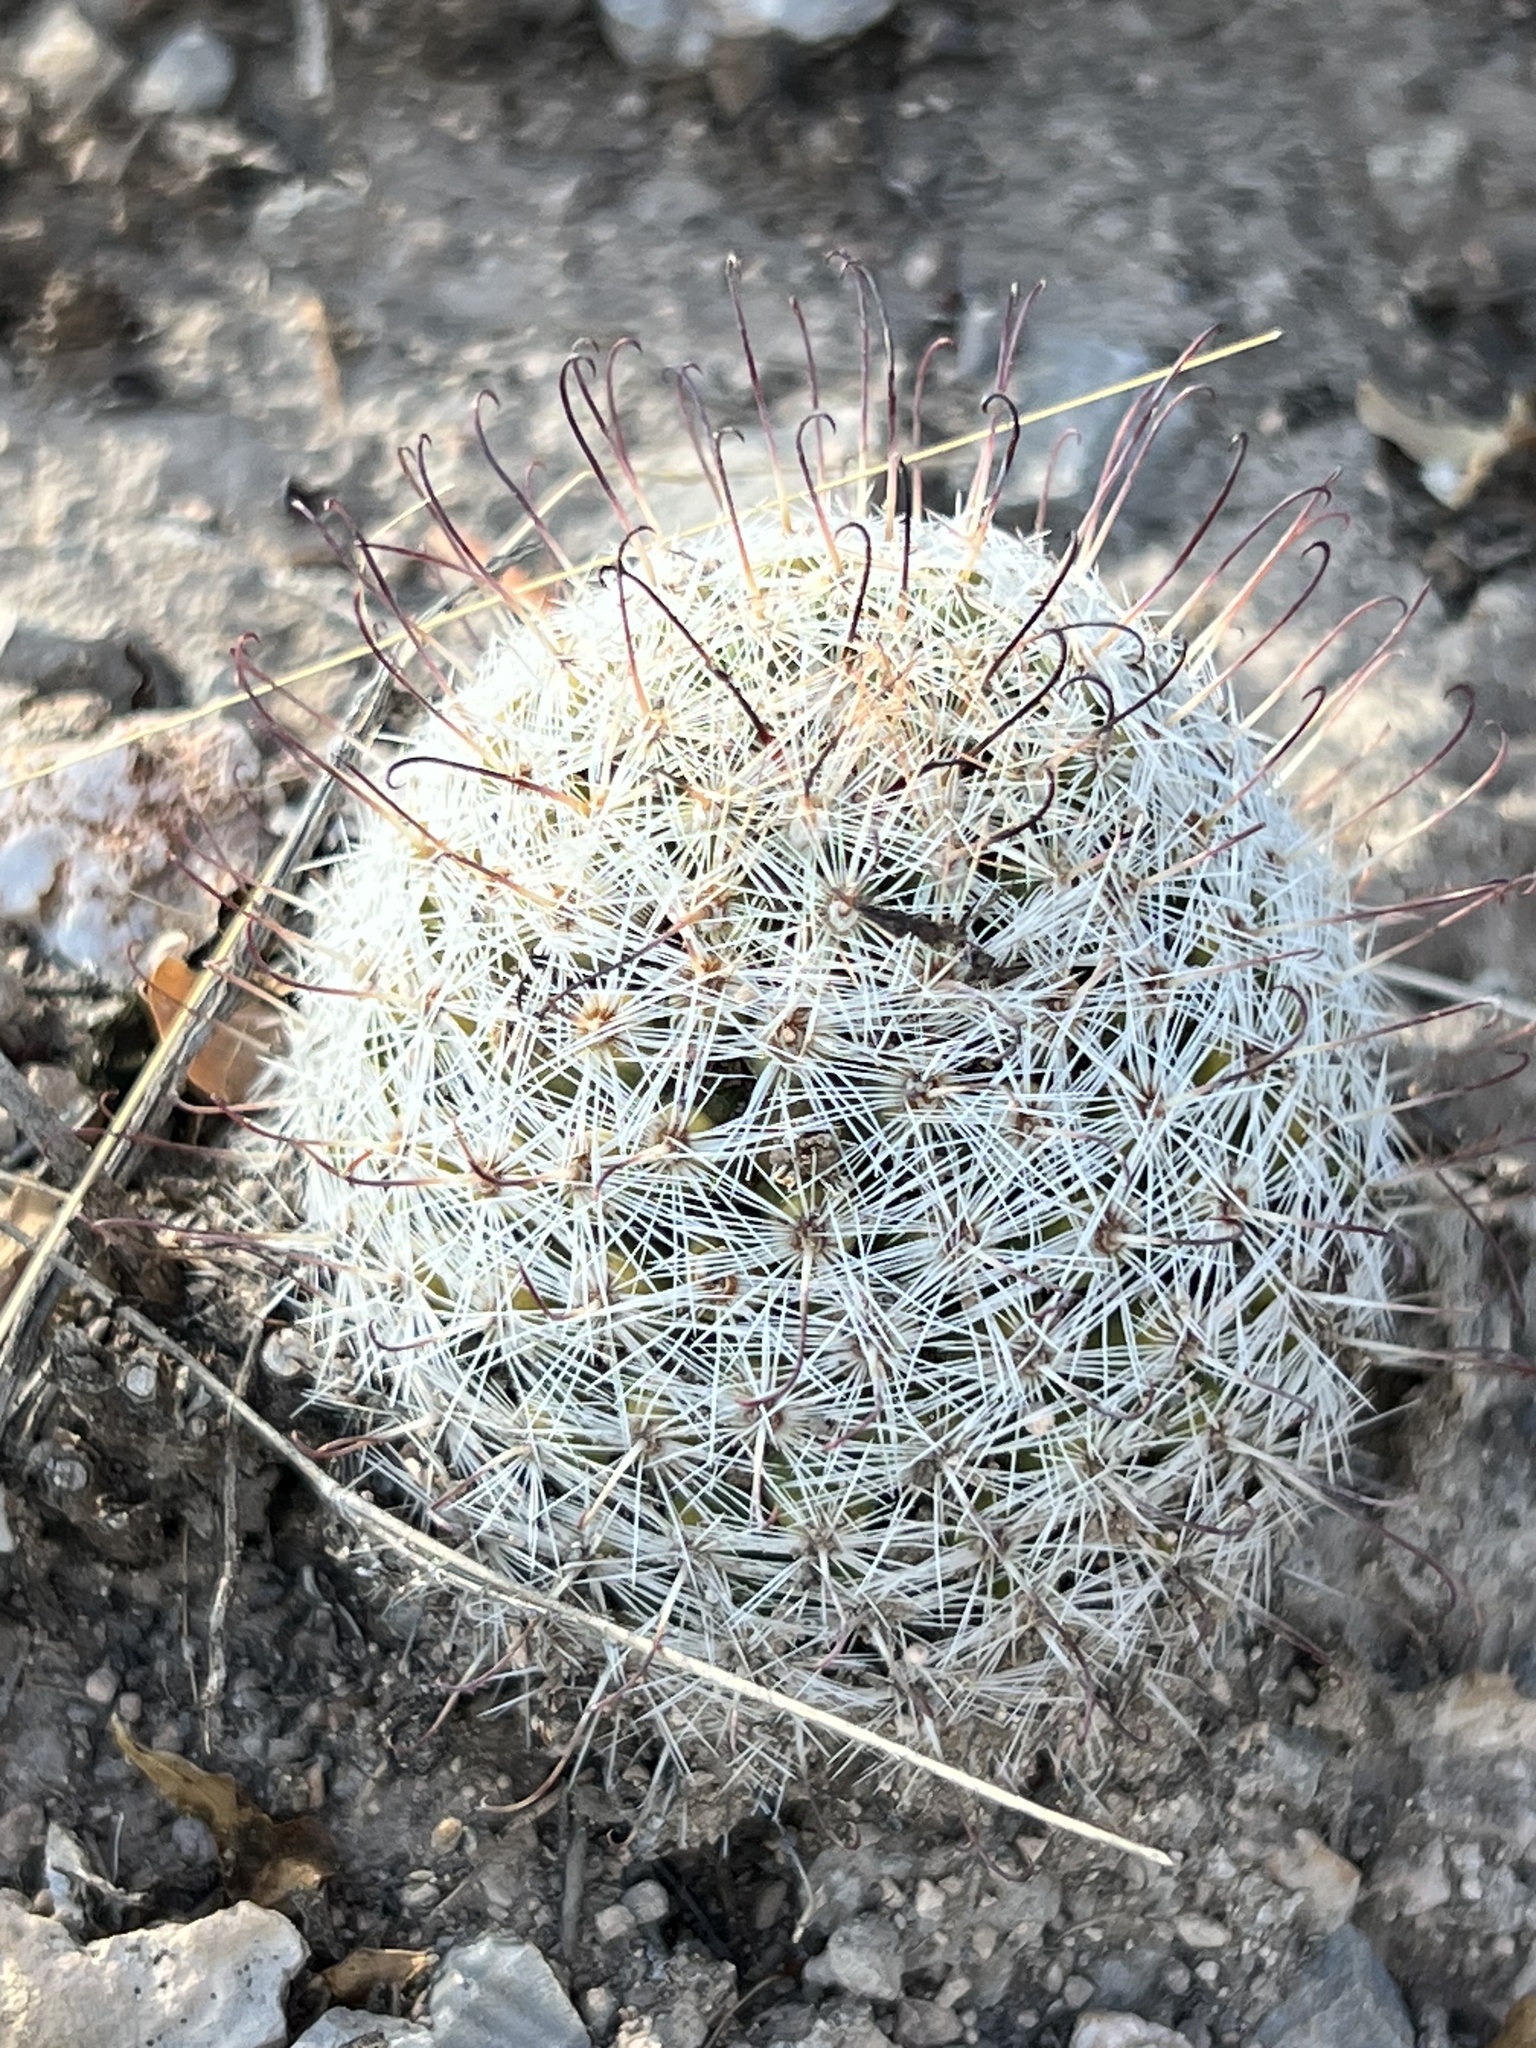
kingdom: Plantae
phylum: Tracheophyta
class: Magnoliopsida
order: Caryophyllales
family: Cactaceae
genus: Cochemiea
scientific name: Cochemiea grahamii
